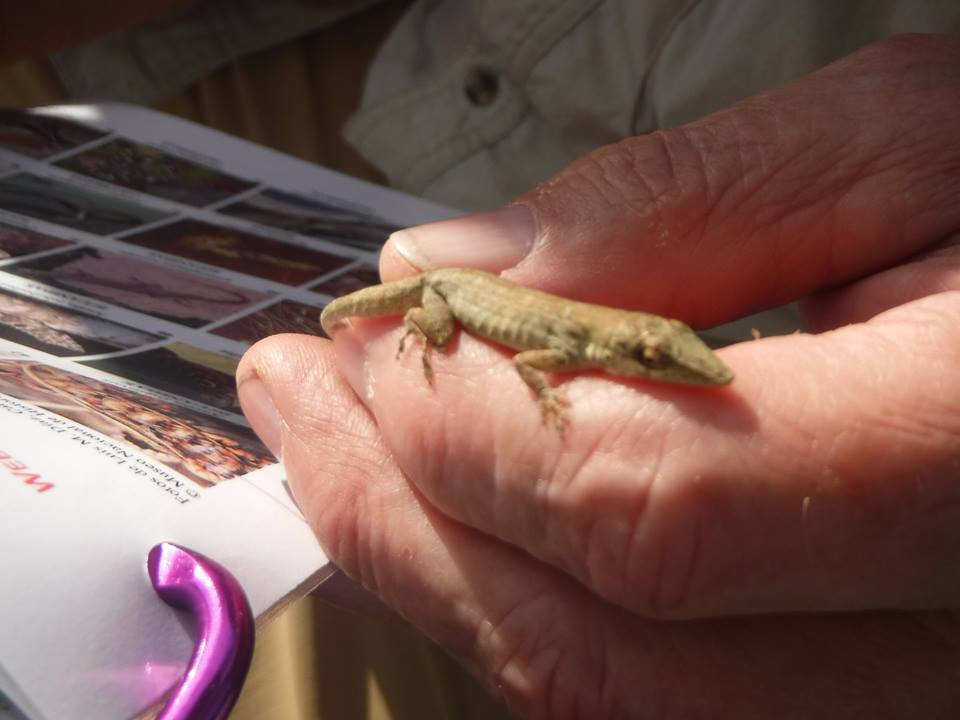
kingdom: Animalia
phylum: Chordata
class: Squamata
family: Dactyloidae
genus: Anolis
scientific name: Anolis angusticeps
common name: Cuban twig anole
